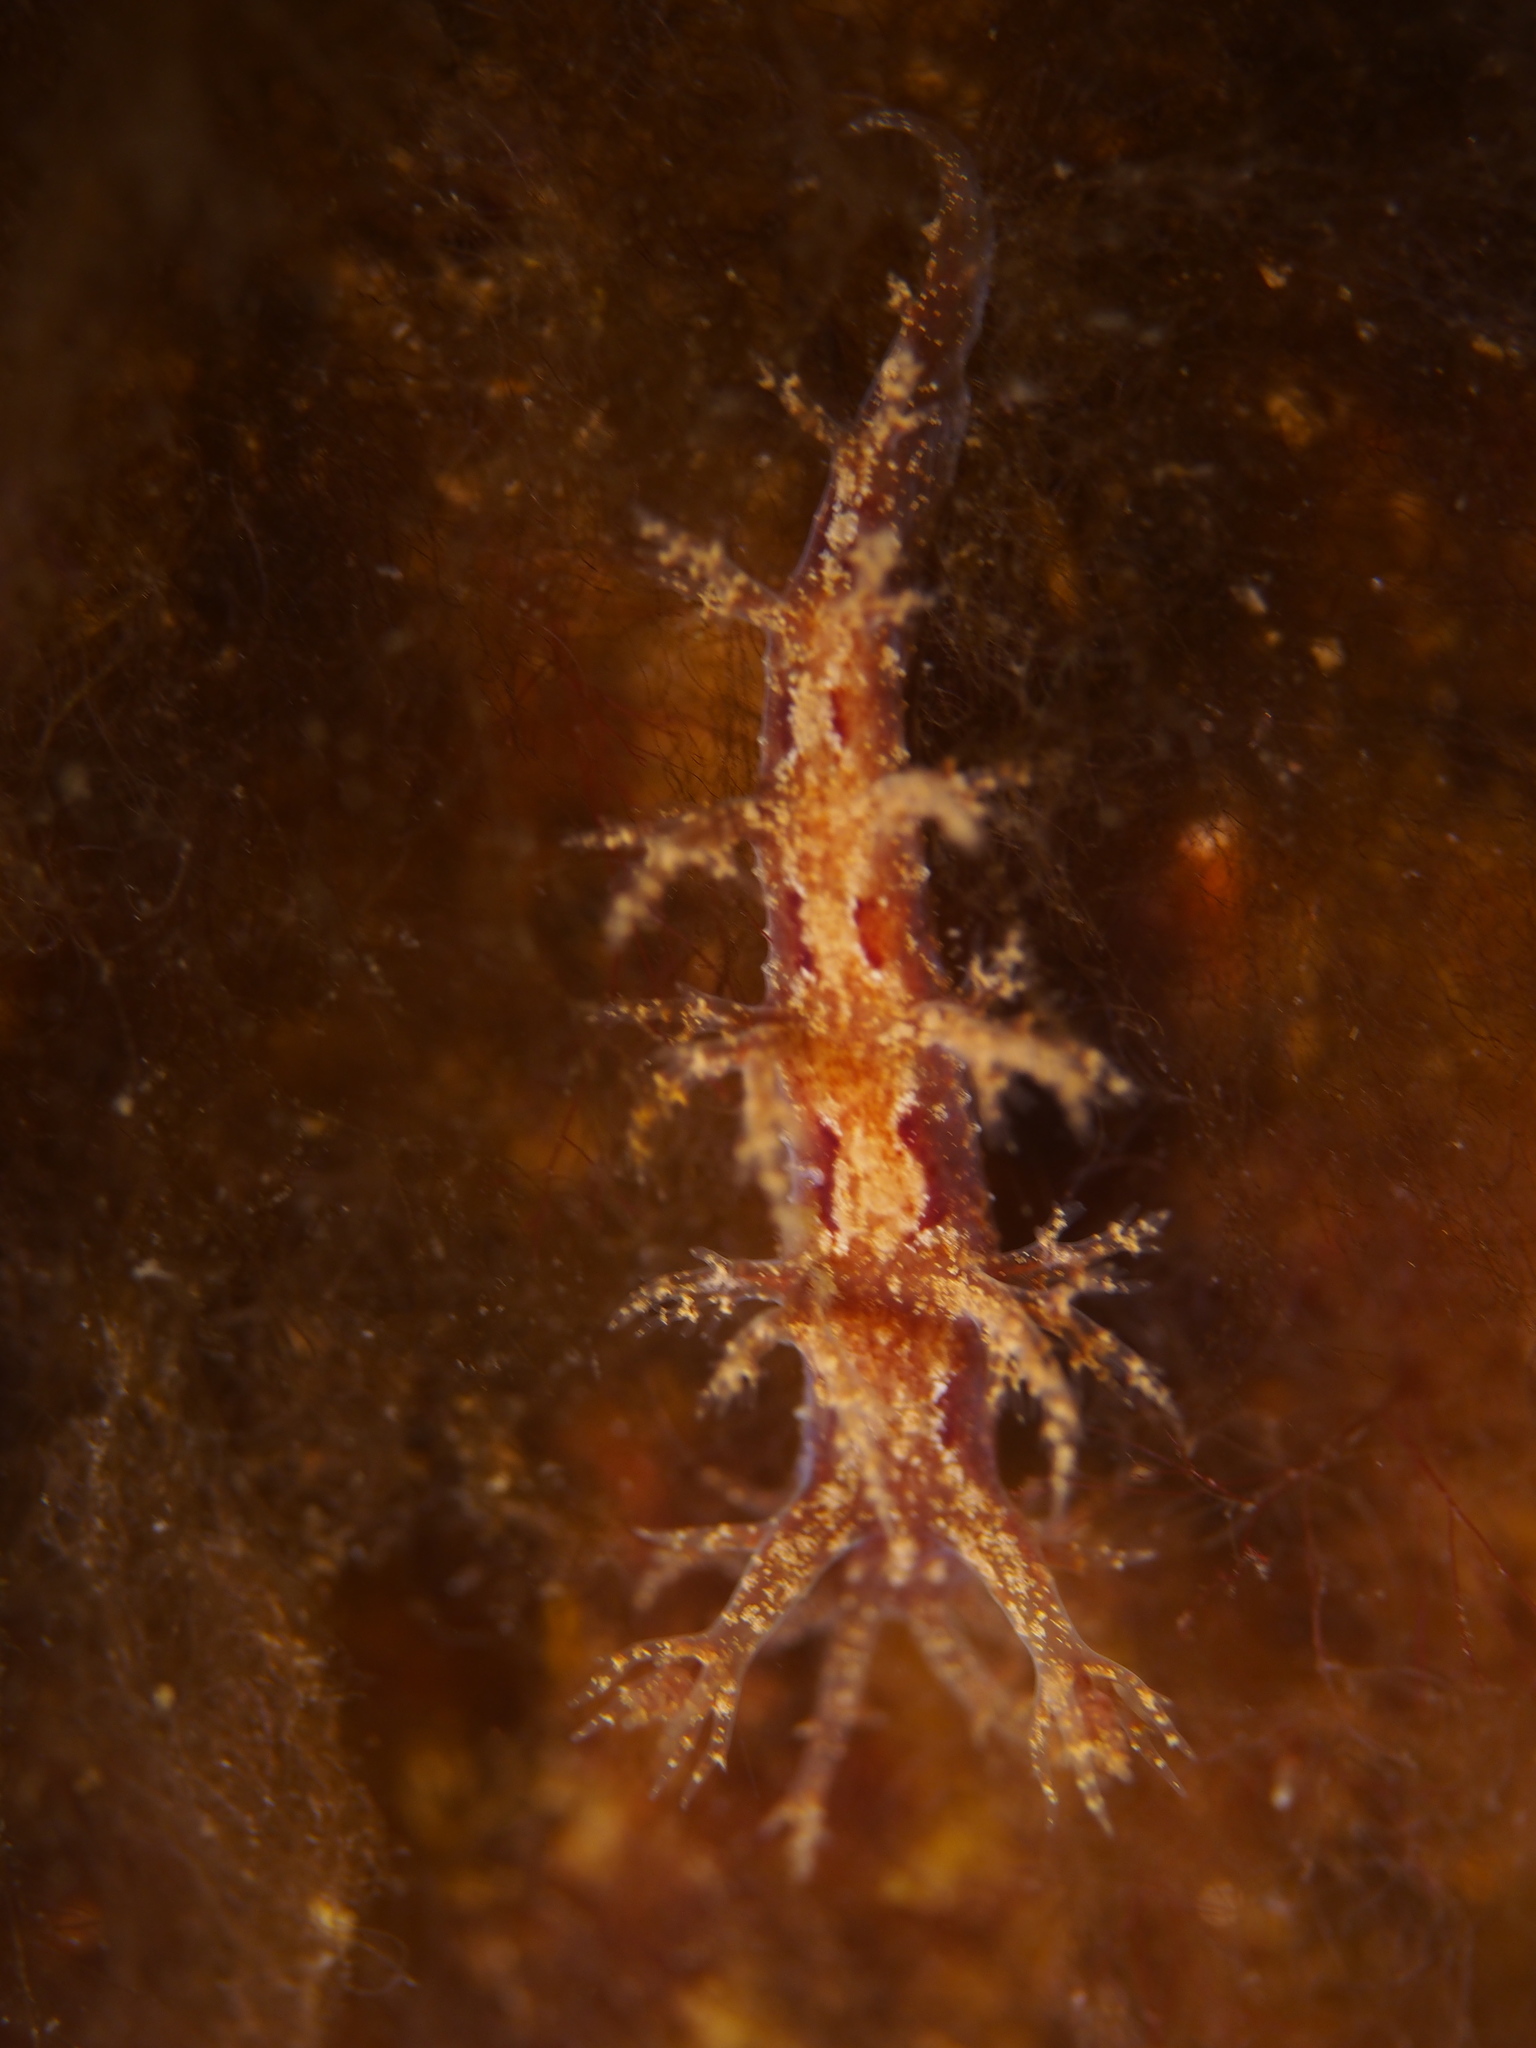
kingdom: Animalia
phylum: Mollusca
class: Gastropoda
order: Nudibranchia
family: Dendronotidae
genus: Dendronotus
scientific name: Dendronotus frondosus
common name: Bushy-backed nudibranch
